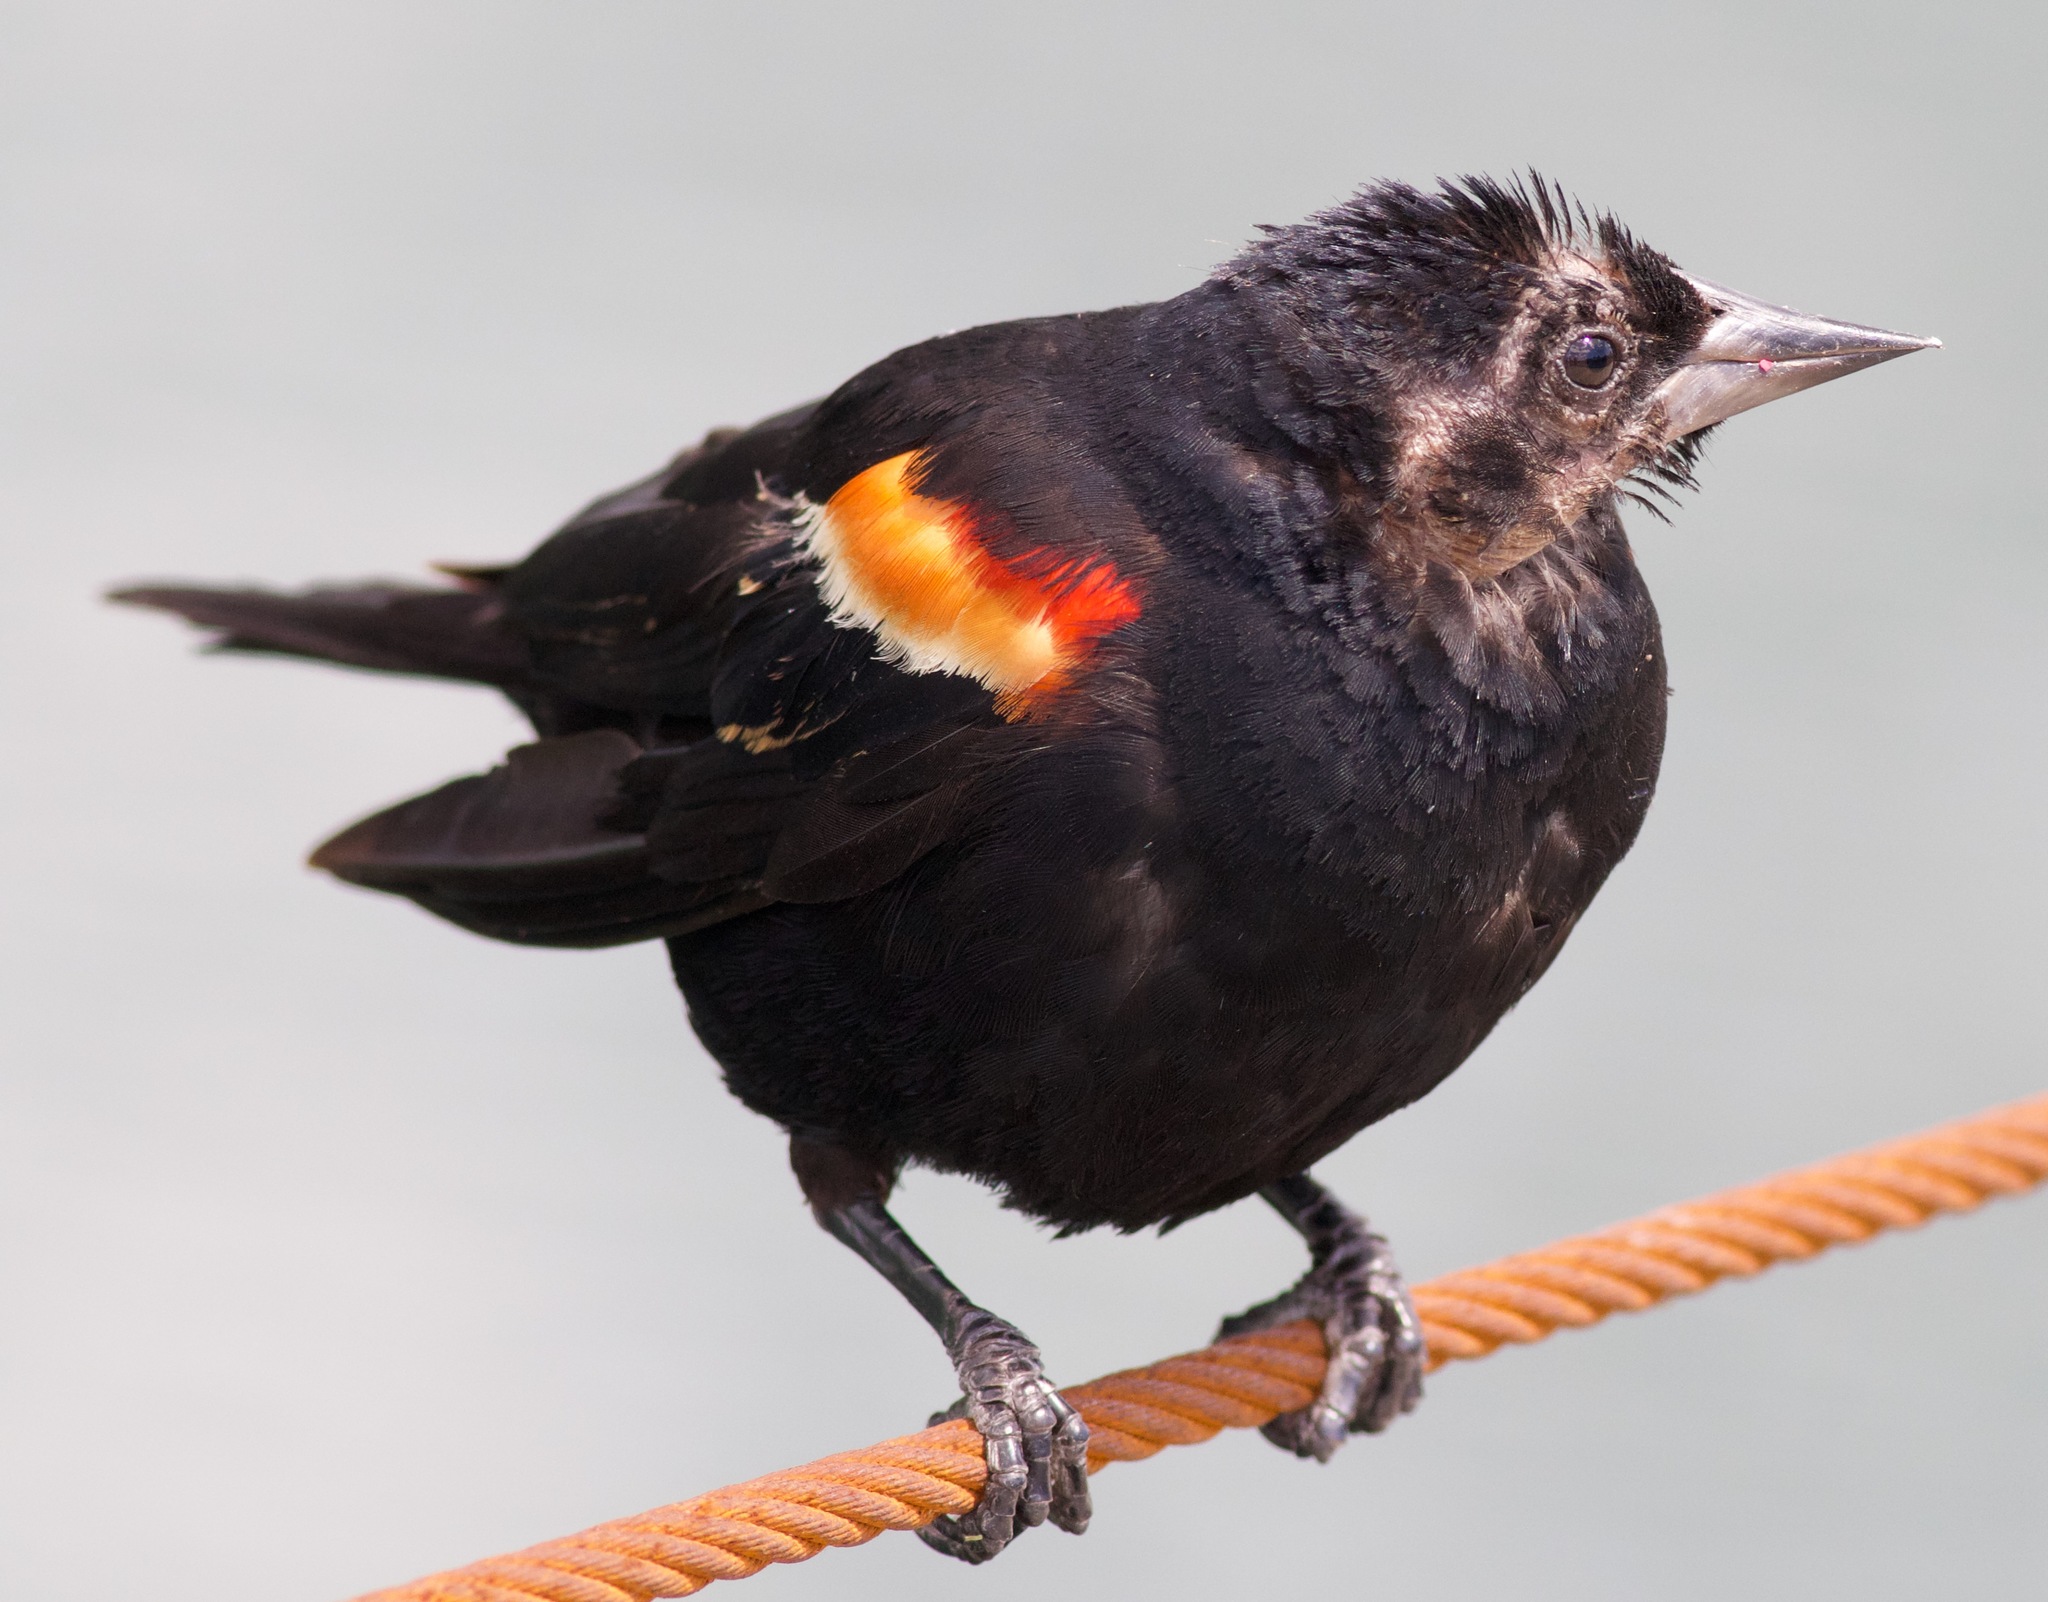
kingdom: Animalia
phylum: Chordata
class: Aves
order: Passeriformes
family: Icteridae
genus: Agelaius
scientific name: Agelaius phoeniceus
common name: Red-winged blackbird
